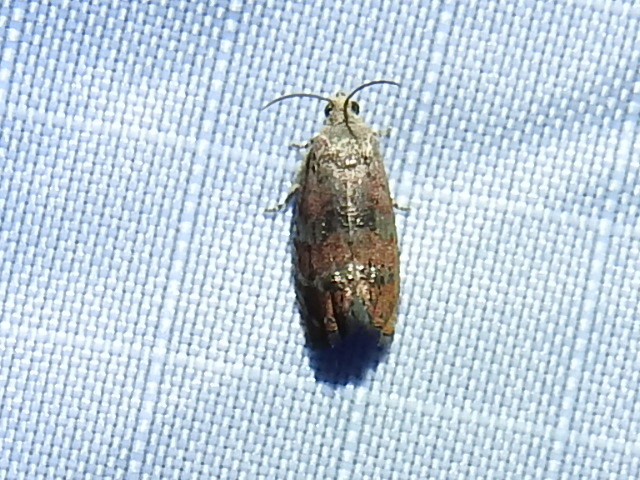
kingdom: Animalia
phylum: Arthropoda
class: Insecta
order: Lepidoptera
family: Tortricidae
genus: Cydia
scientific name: Cydia latiferreana
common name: Filbertworm moth
